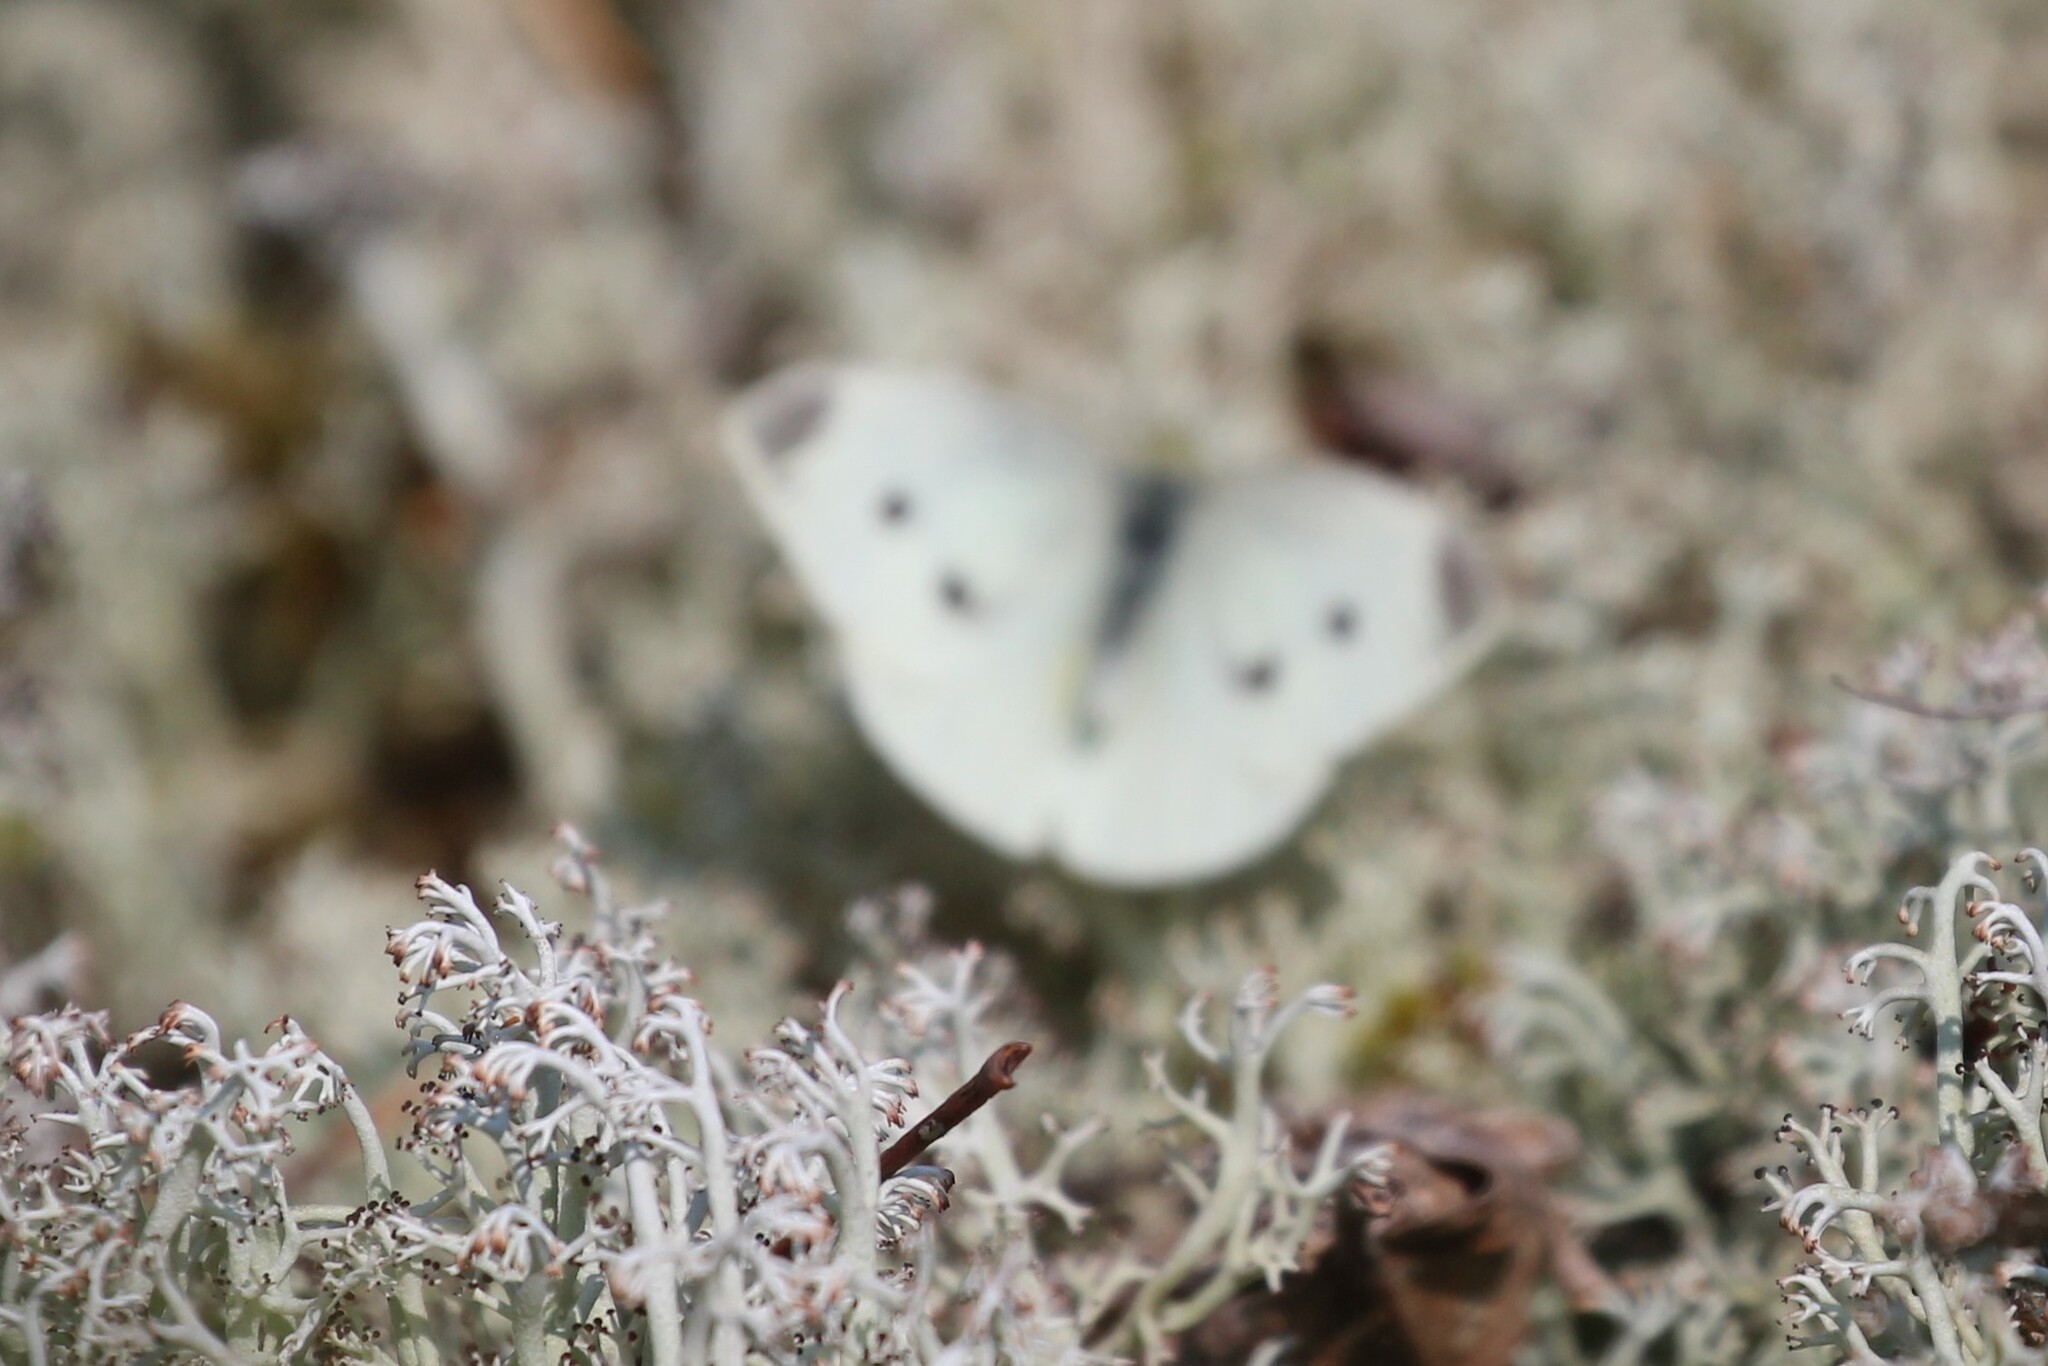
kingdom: Animalia
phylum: Arthropoda
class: Insecta
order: Lepidoptera
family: Pieridae
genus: Pieris
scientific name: Pieris rapae
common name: Small white
